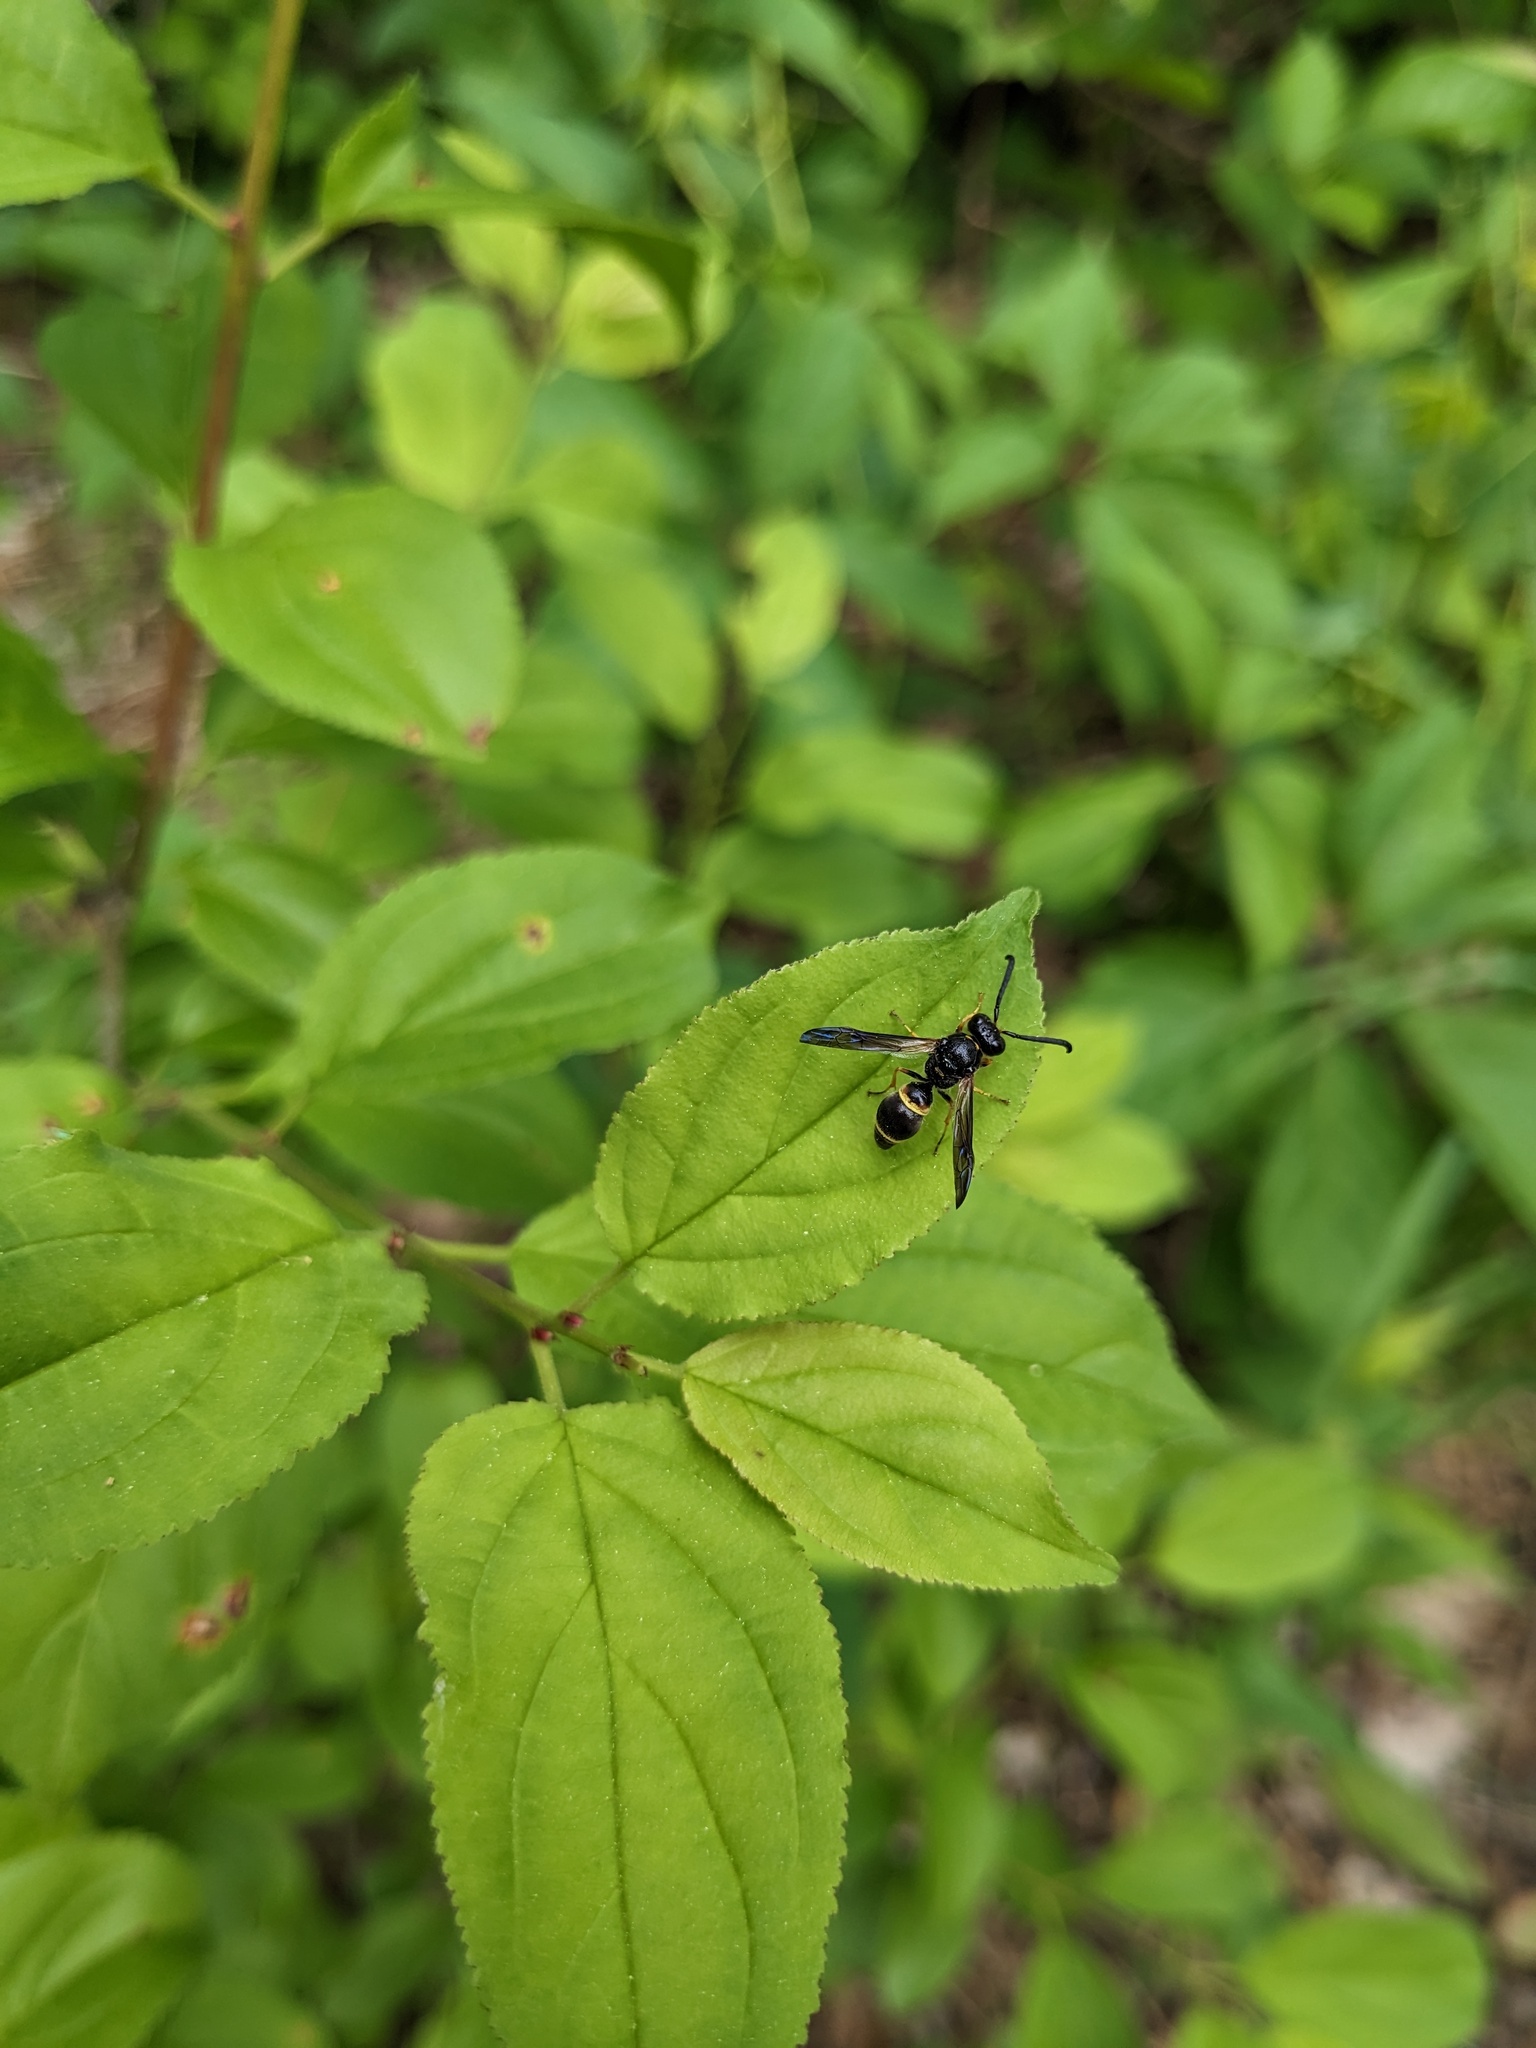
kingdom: Animalia
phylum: Arthropoda
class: Insecta
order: Hymenoptera
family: Vespidae
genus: Ancistrocerus
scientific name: Ancistrocerus unifasciatus
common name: One-banded mason wasp
